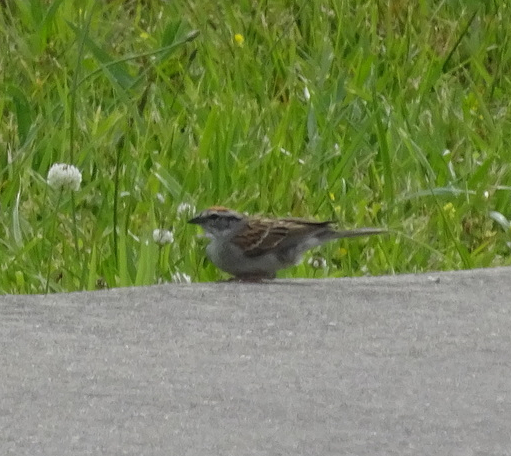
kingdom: Animalia
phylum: Chordata
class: Aves
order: Passeriformes
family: Passerellidae
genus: Spizella
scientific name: Spizella passerina
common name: Chipping sparrow
